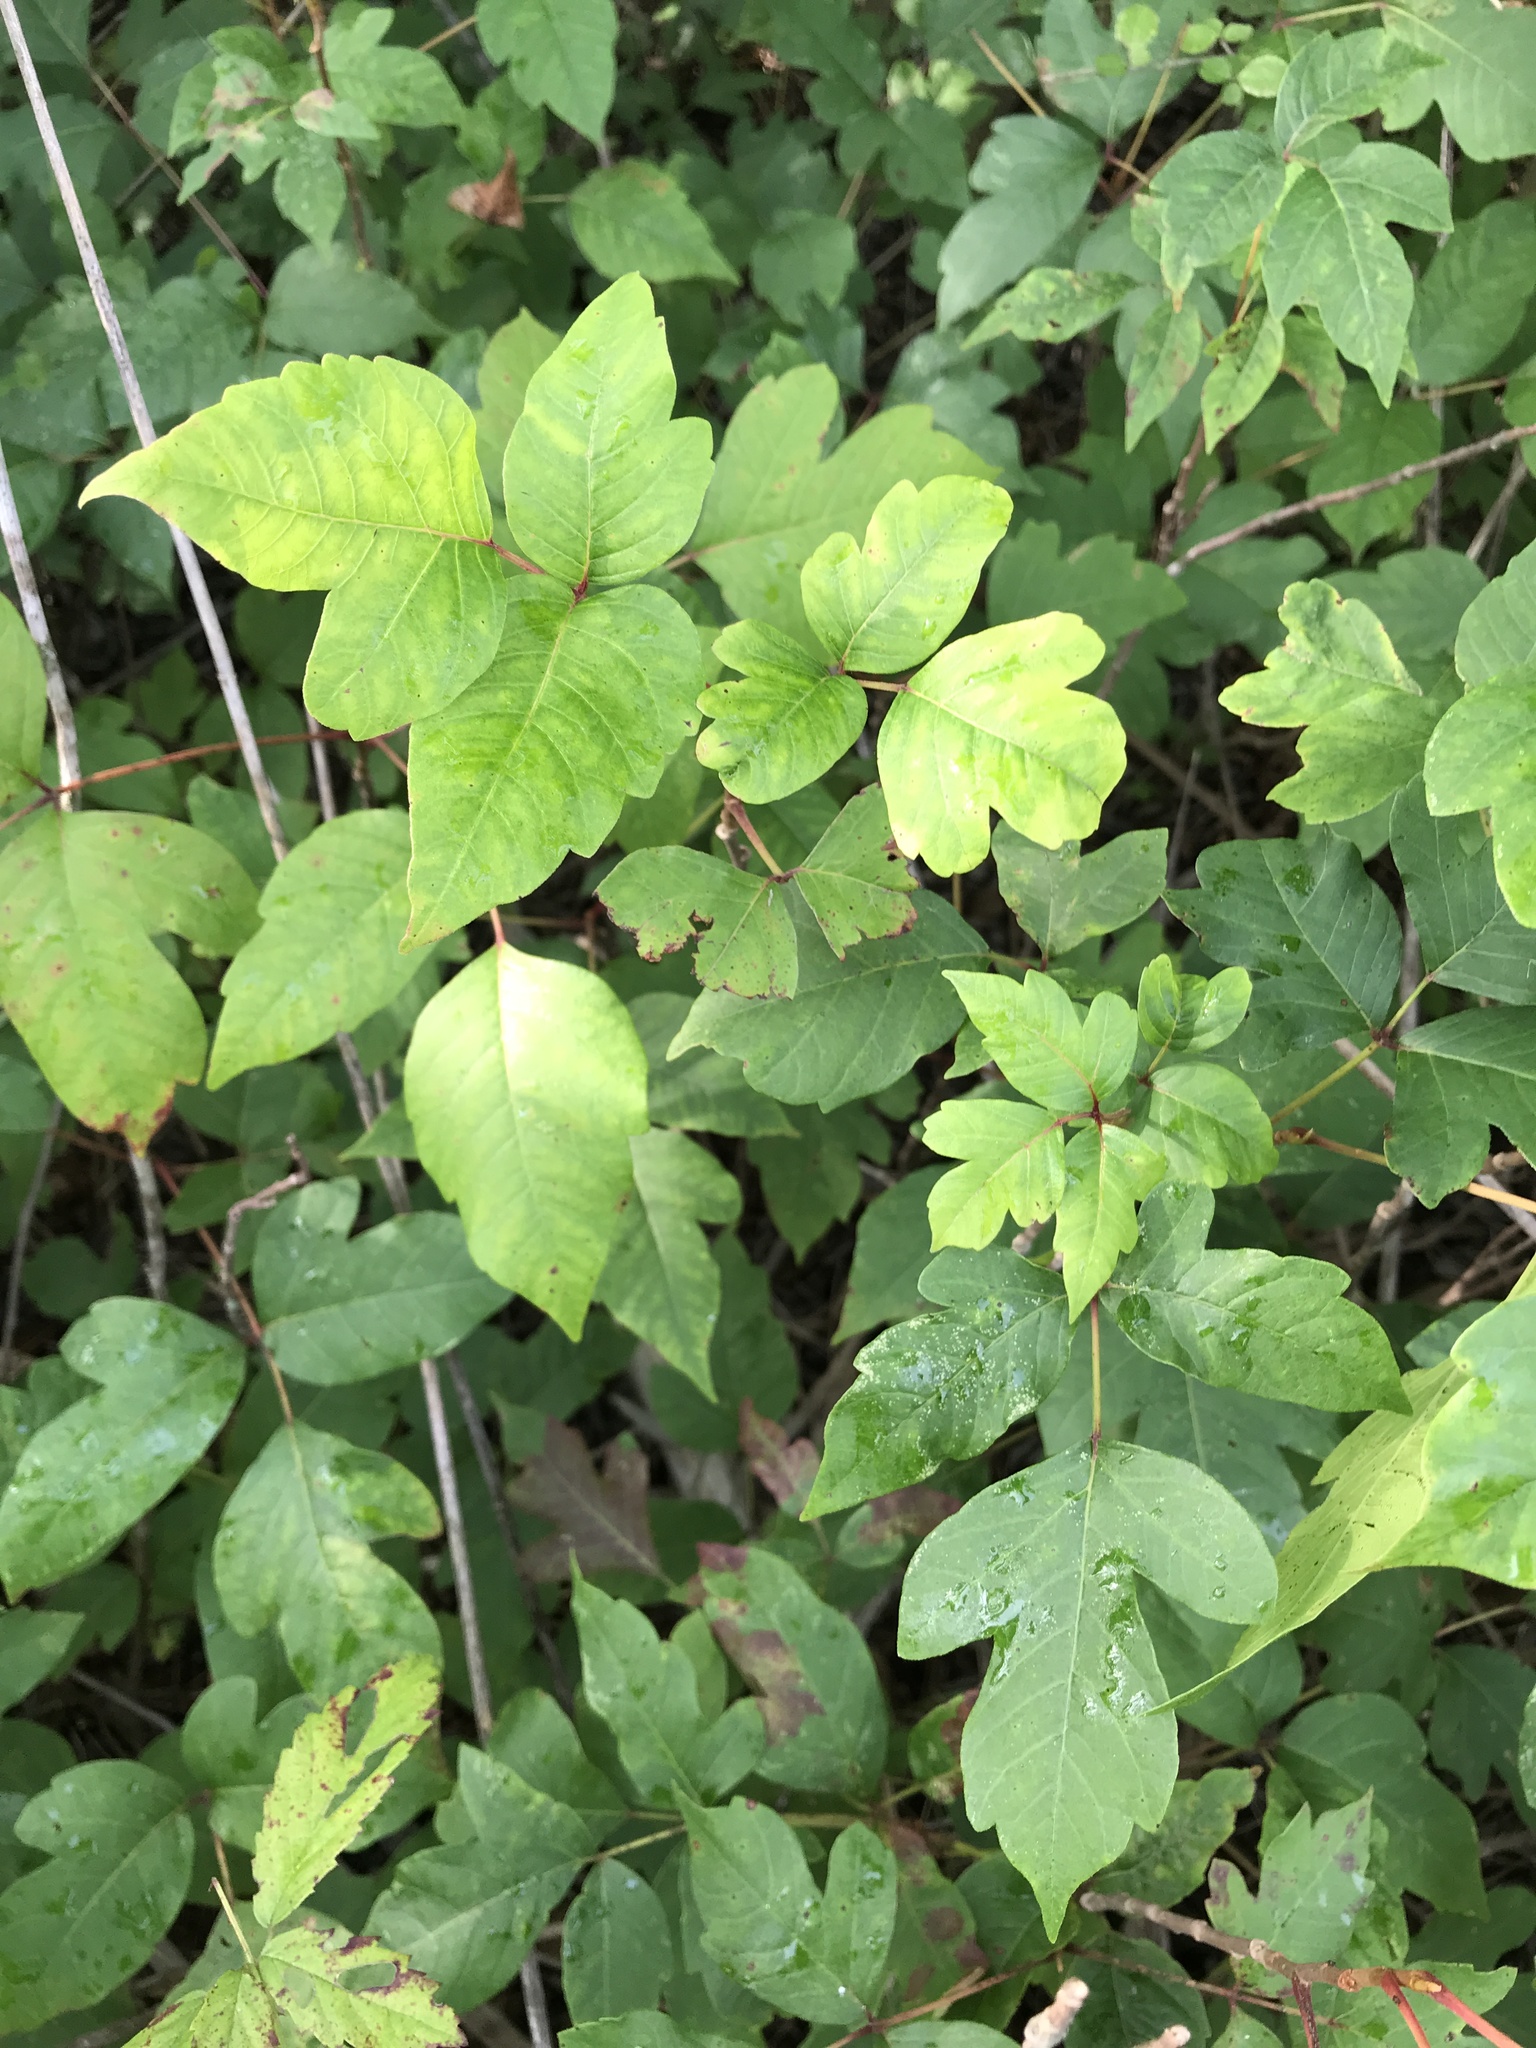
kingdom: Plantae
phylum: Tracheophyta
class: Magnoliopsida
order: Sapindales
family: Anacardiaceae
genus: Toxicodendron
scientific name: Toxicodendron radicans
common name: Poison ivy
